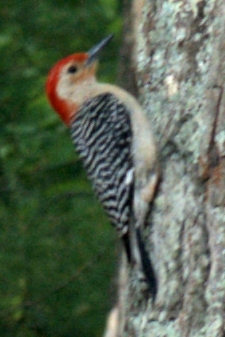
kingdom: Animalia
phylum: Chordata
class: Aves
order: Piciformes
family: Picidae
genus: Melanerpes
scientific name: Melanerpes carolinus
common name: Red-bellied woodpecker
